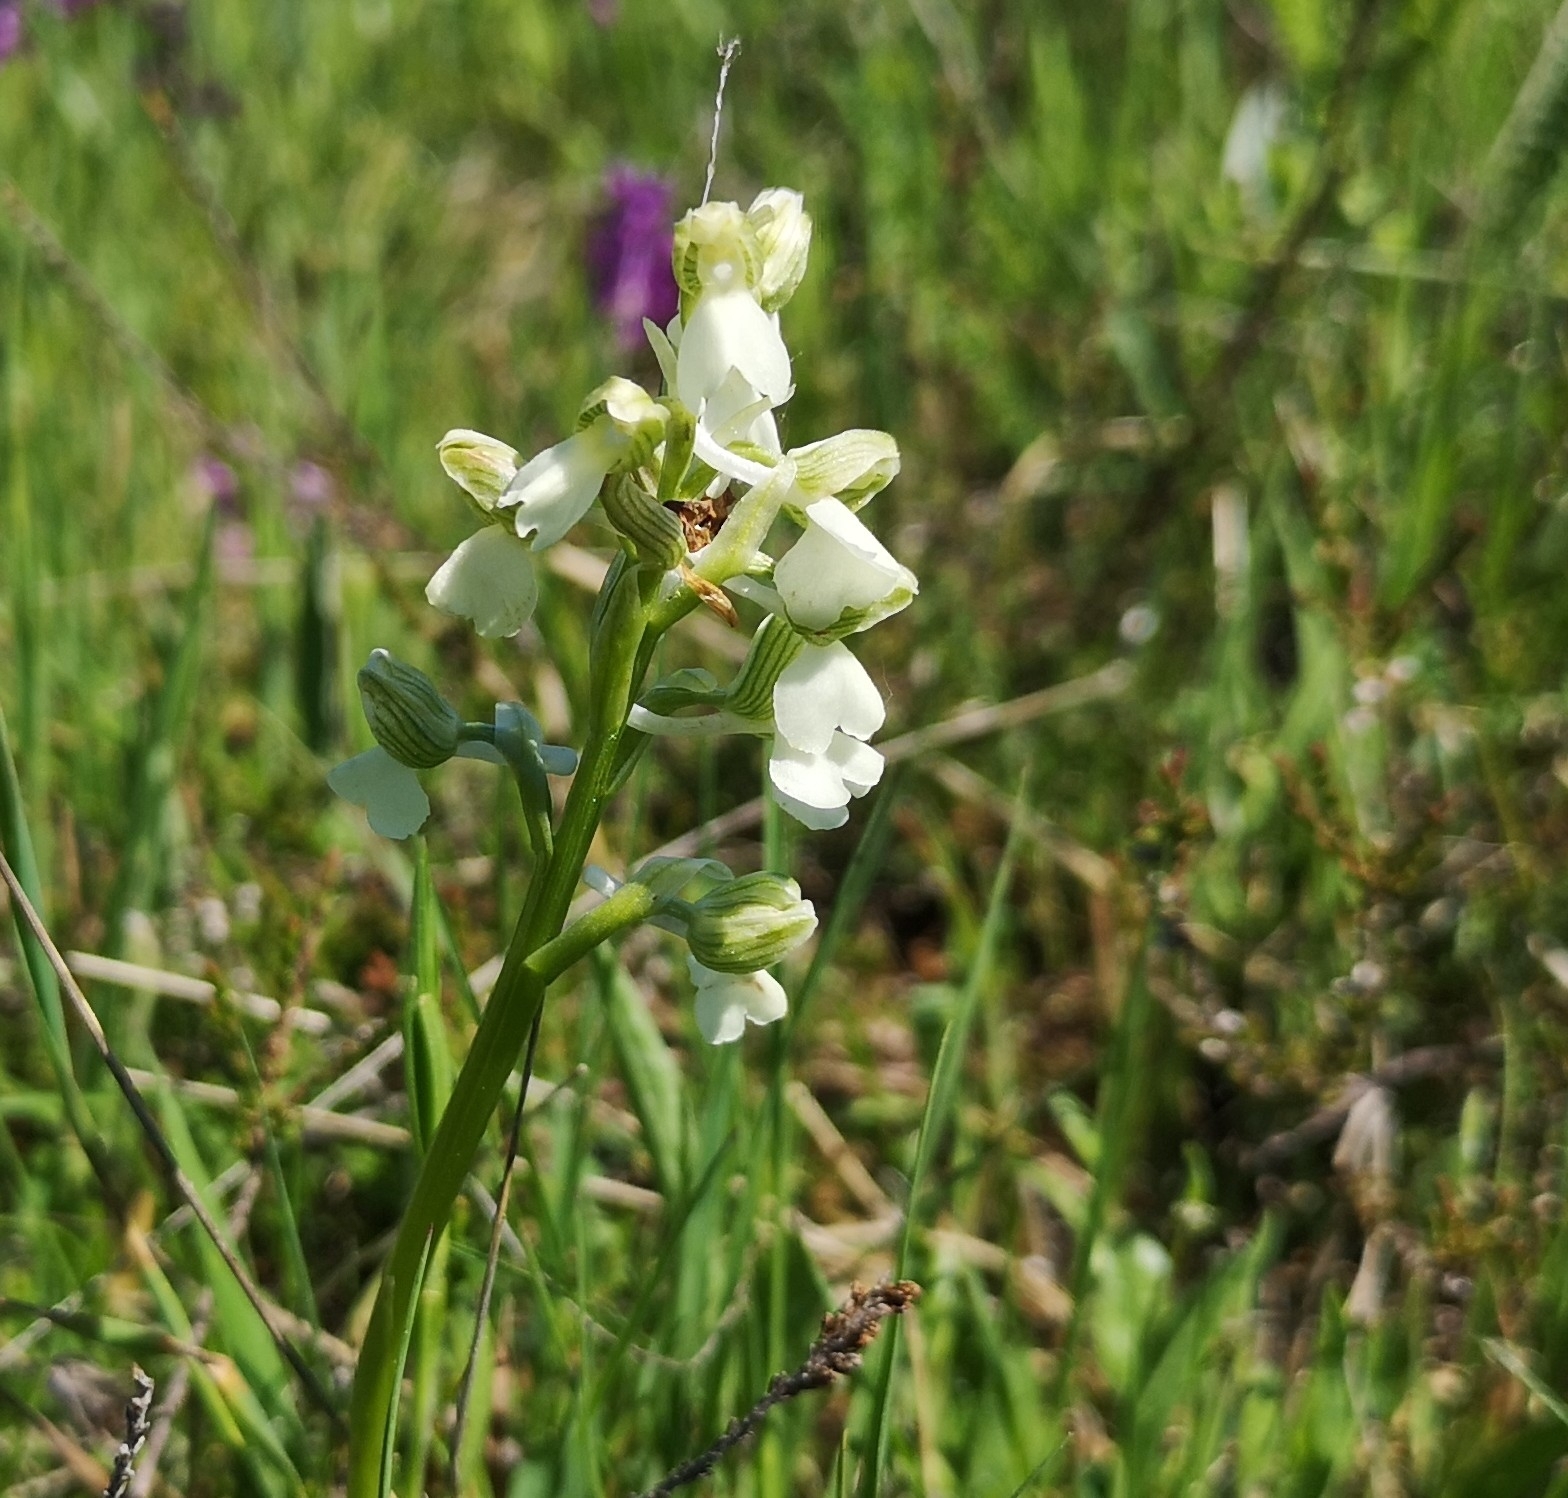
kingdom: Plantae
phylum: Tracheophyta
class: Liliopsida
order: Asparagales
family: Orchidaceae
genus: Anacamptis
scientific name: Anacamptis morio
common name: Green-winged orchid
